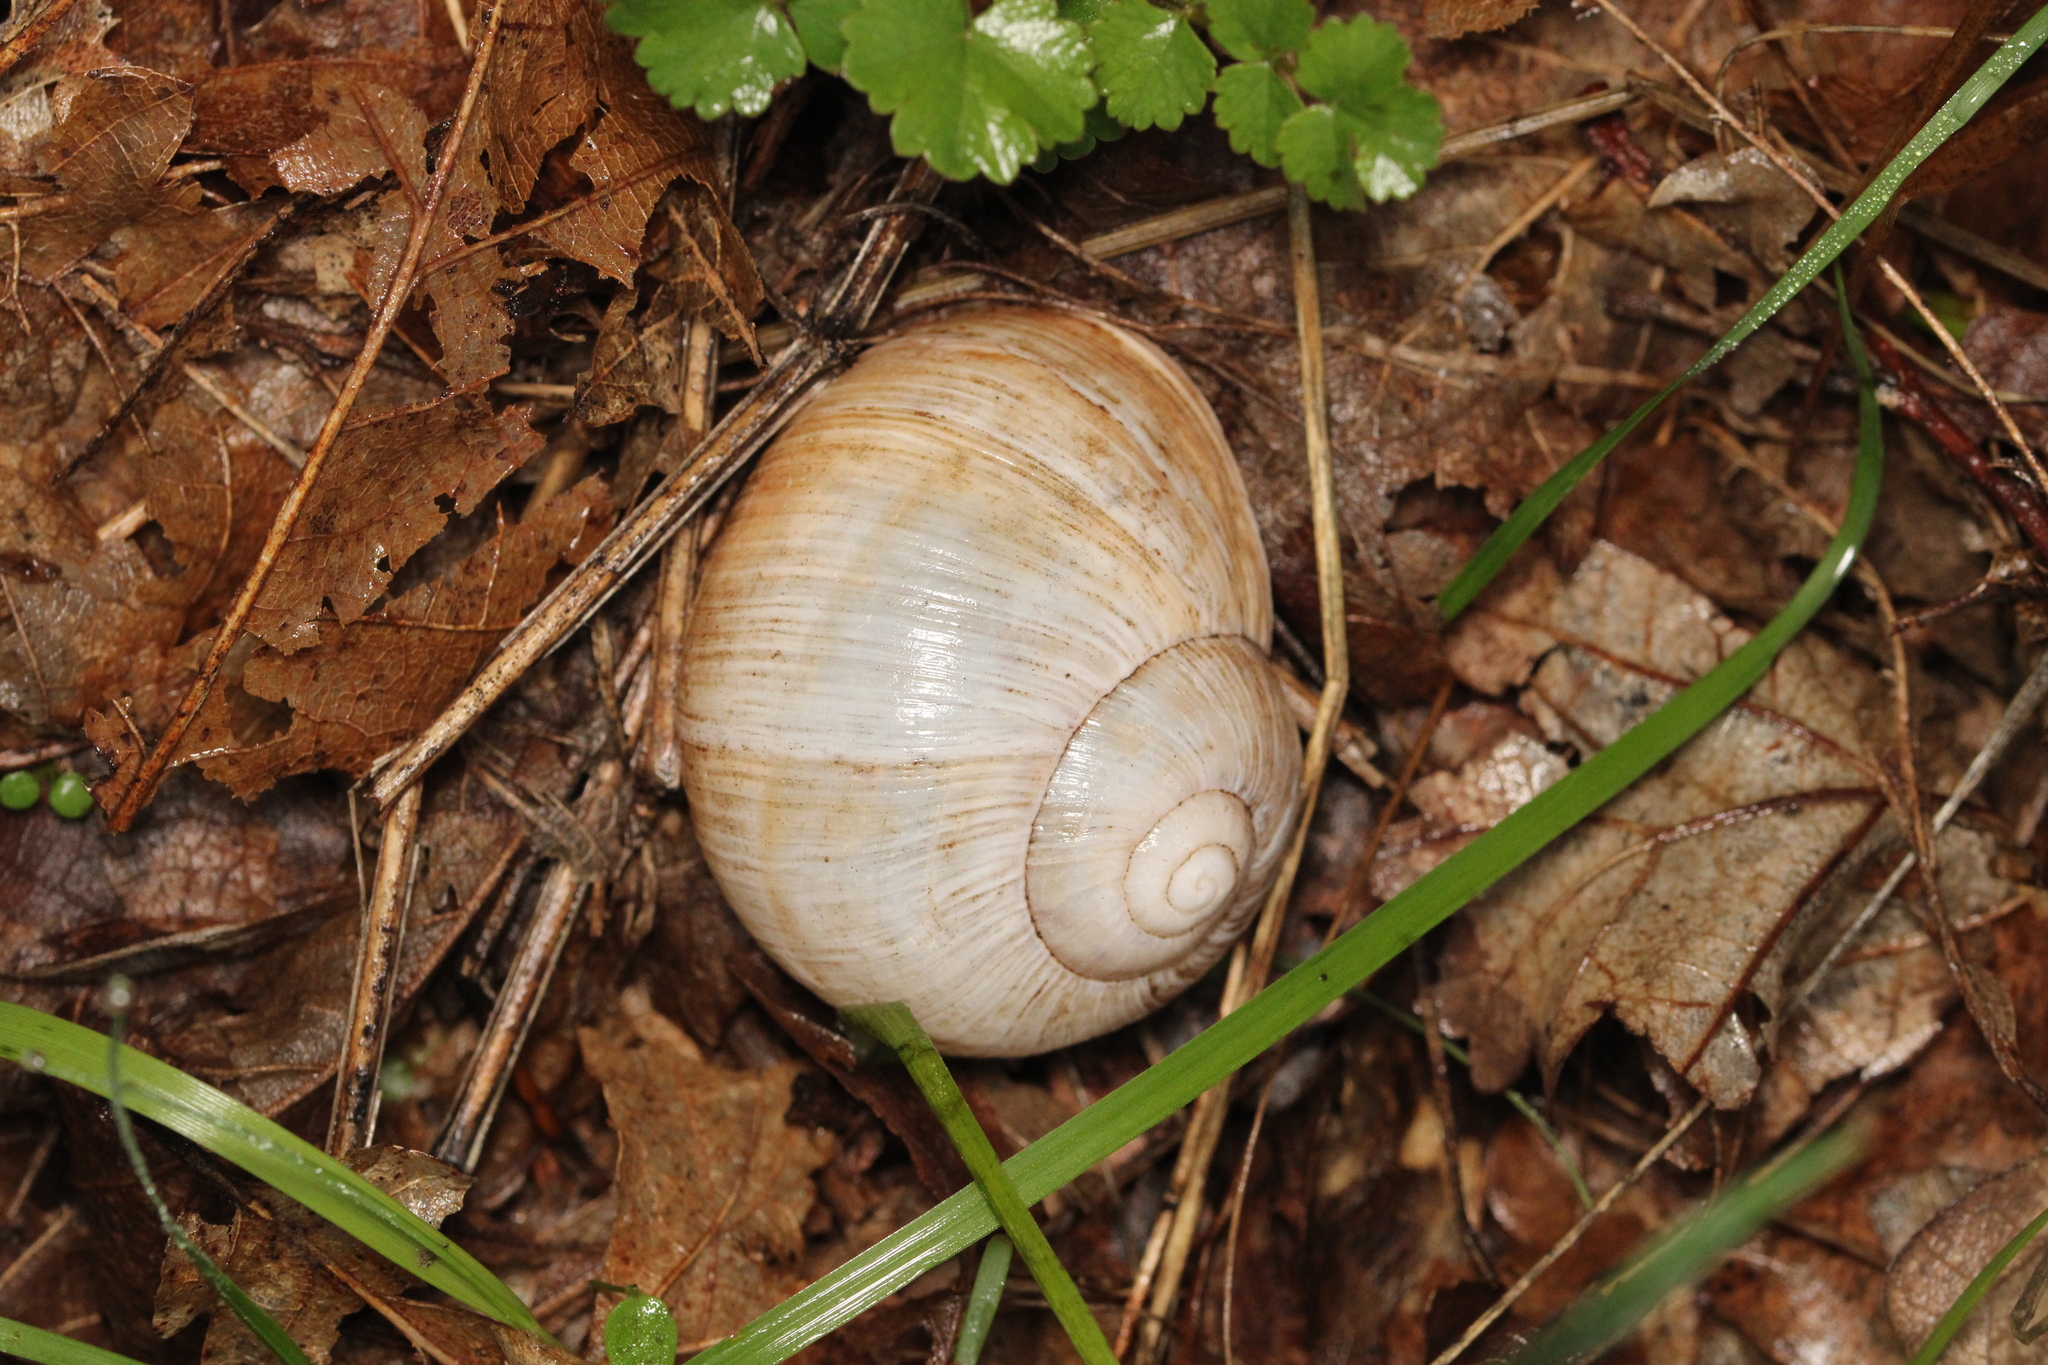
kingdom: Animalia
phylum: Mollusca
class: Gastropoda
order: Stylommatophora
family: Helicidae
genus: Helix
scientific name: Helix pomatia
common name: Roman snail
